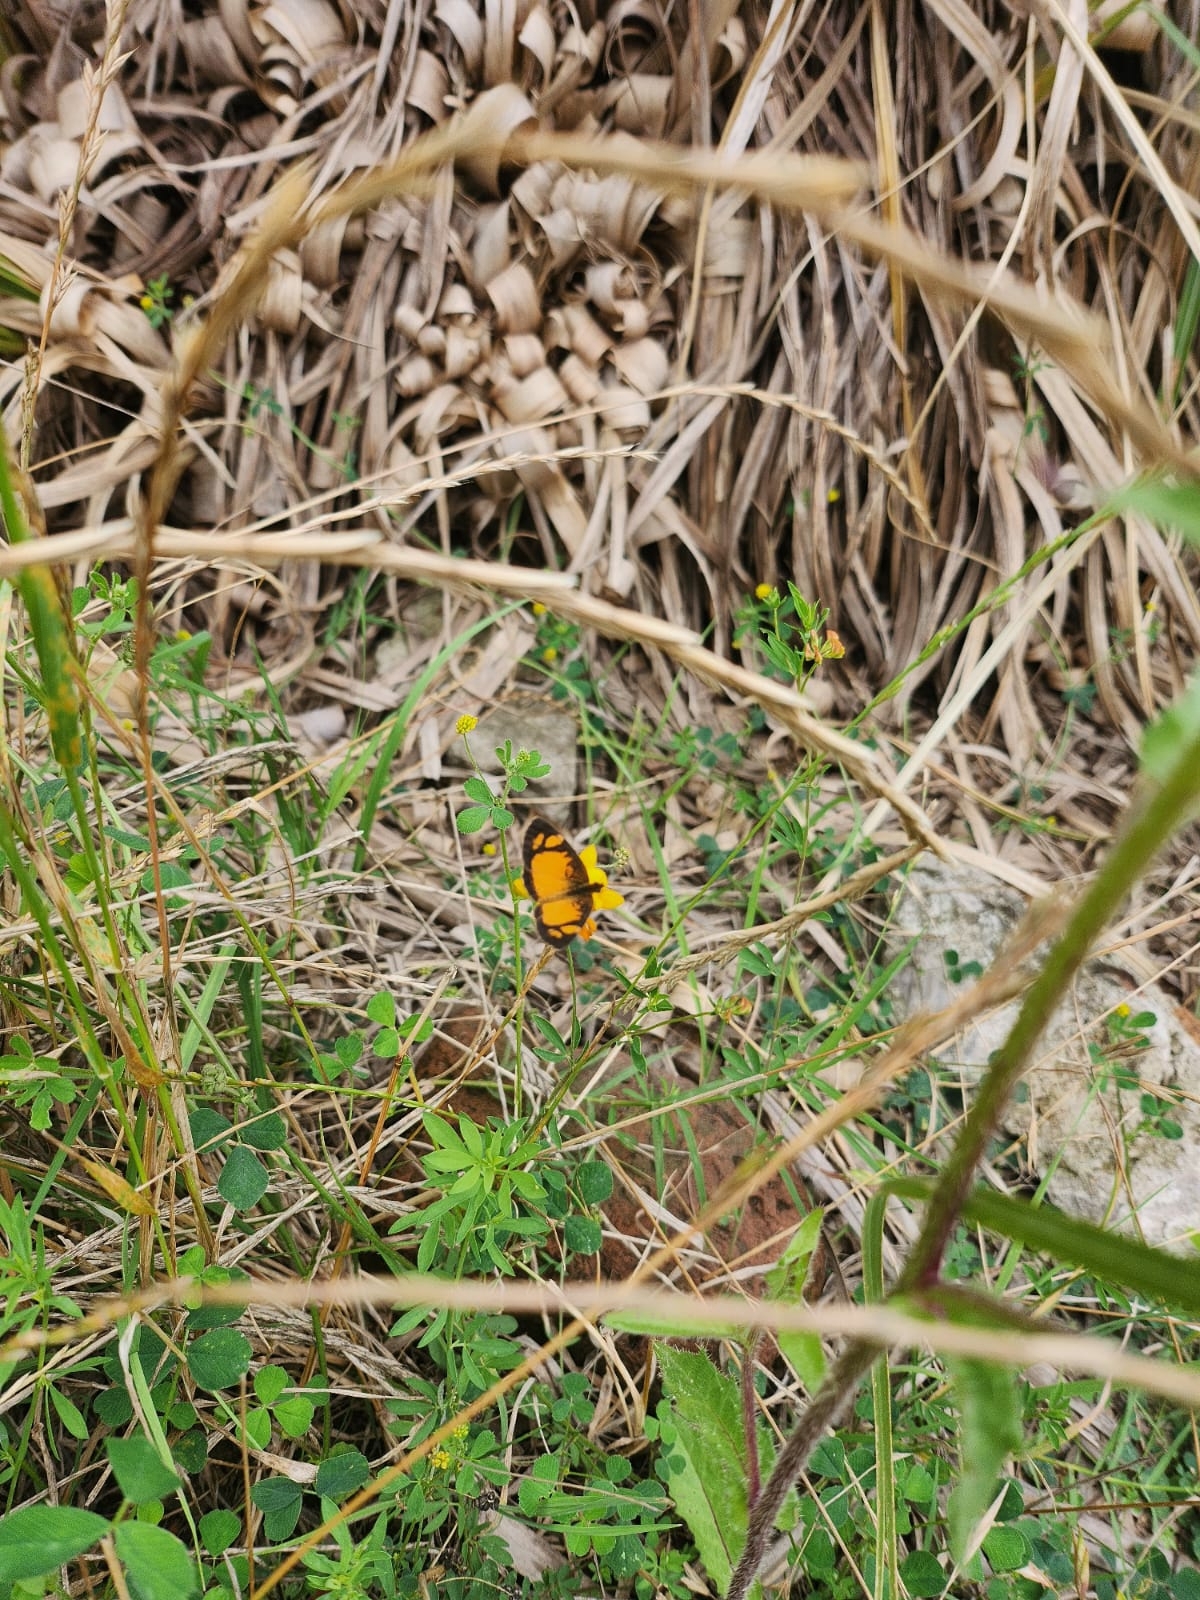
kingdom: Animalia
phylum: Arthropoda
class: Insecta
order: Lepidoptera
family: Nymphalidae
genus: Tegosa
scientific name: Tegosa claudina
